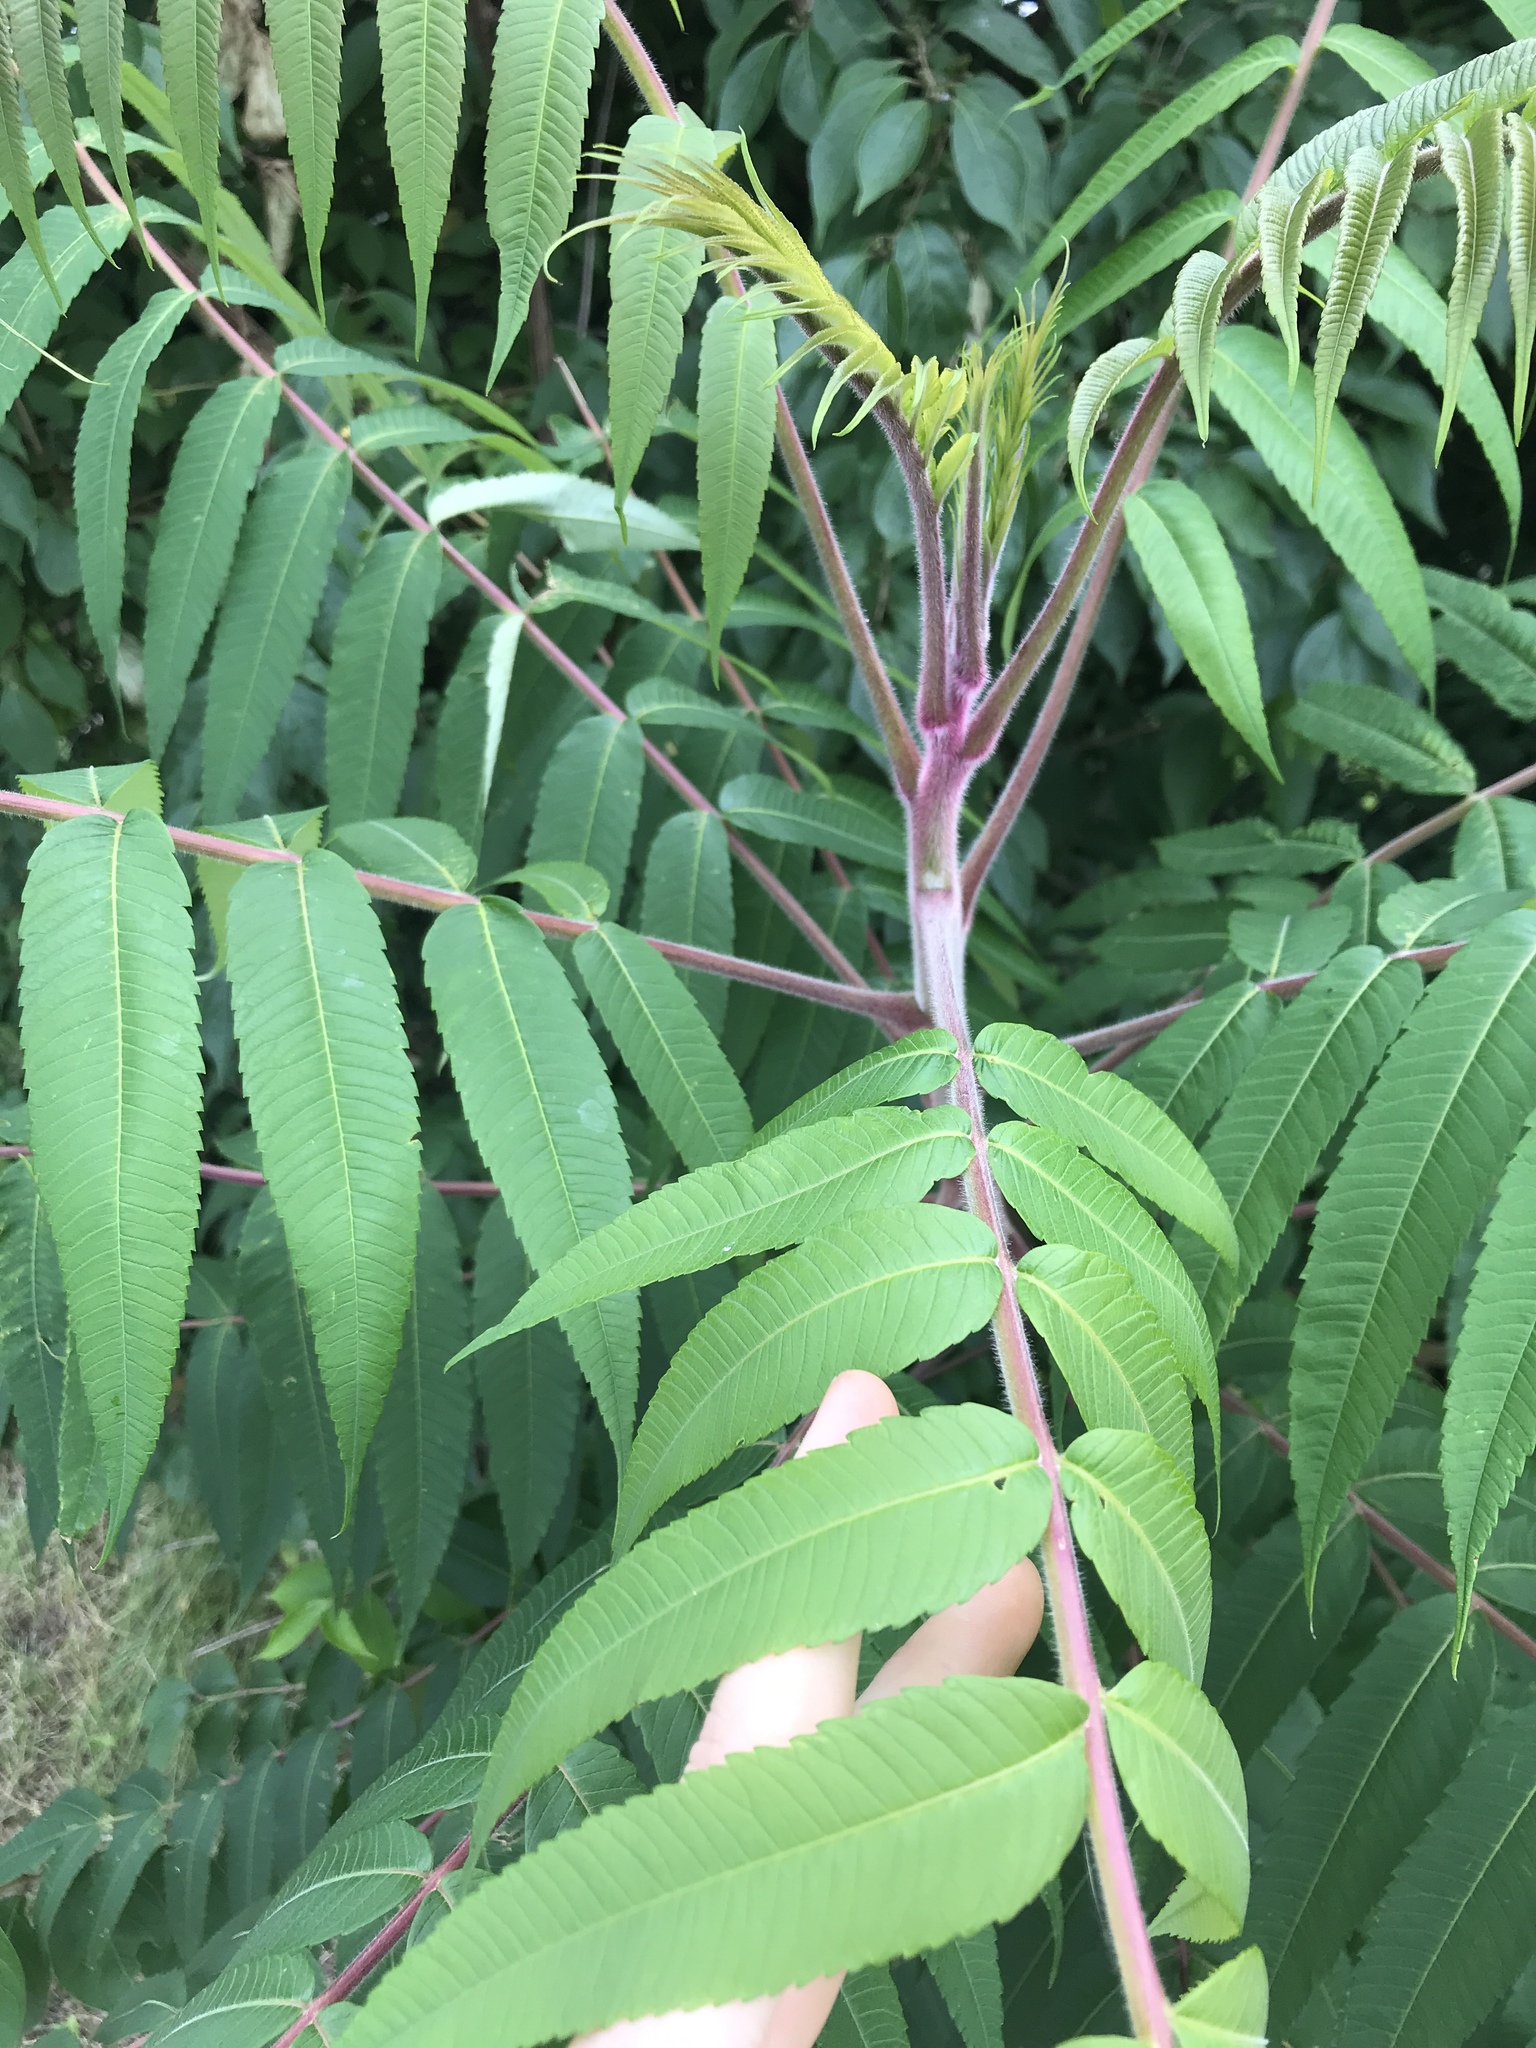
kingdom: Plantae
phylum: Tracheophyta
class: Magnoliopsida
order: Sapindales
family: Anacardiaceae
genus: Rhus
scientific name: Rhus typhina
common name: Staghorn sumac
